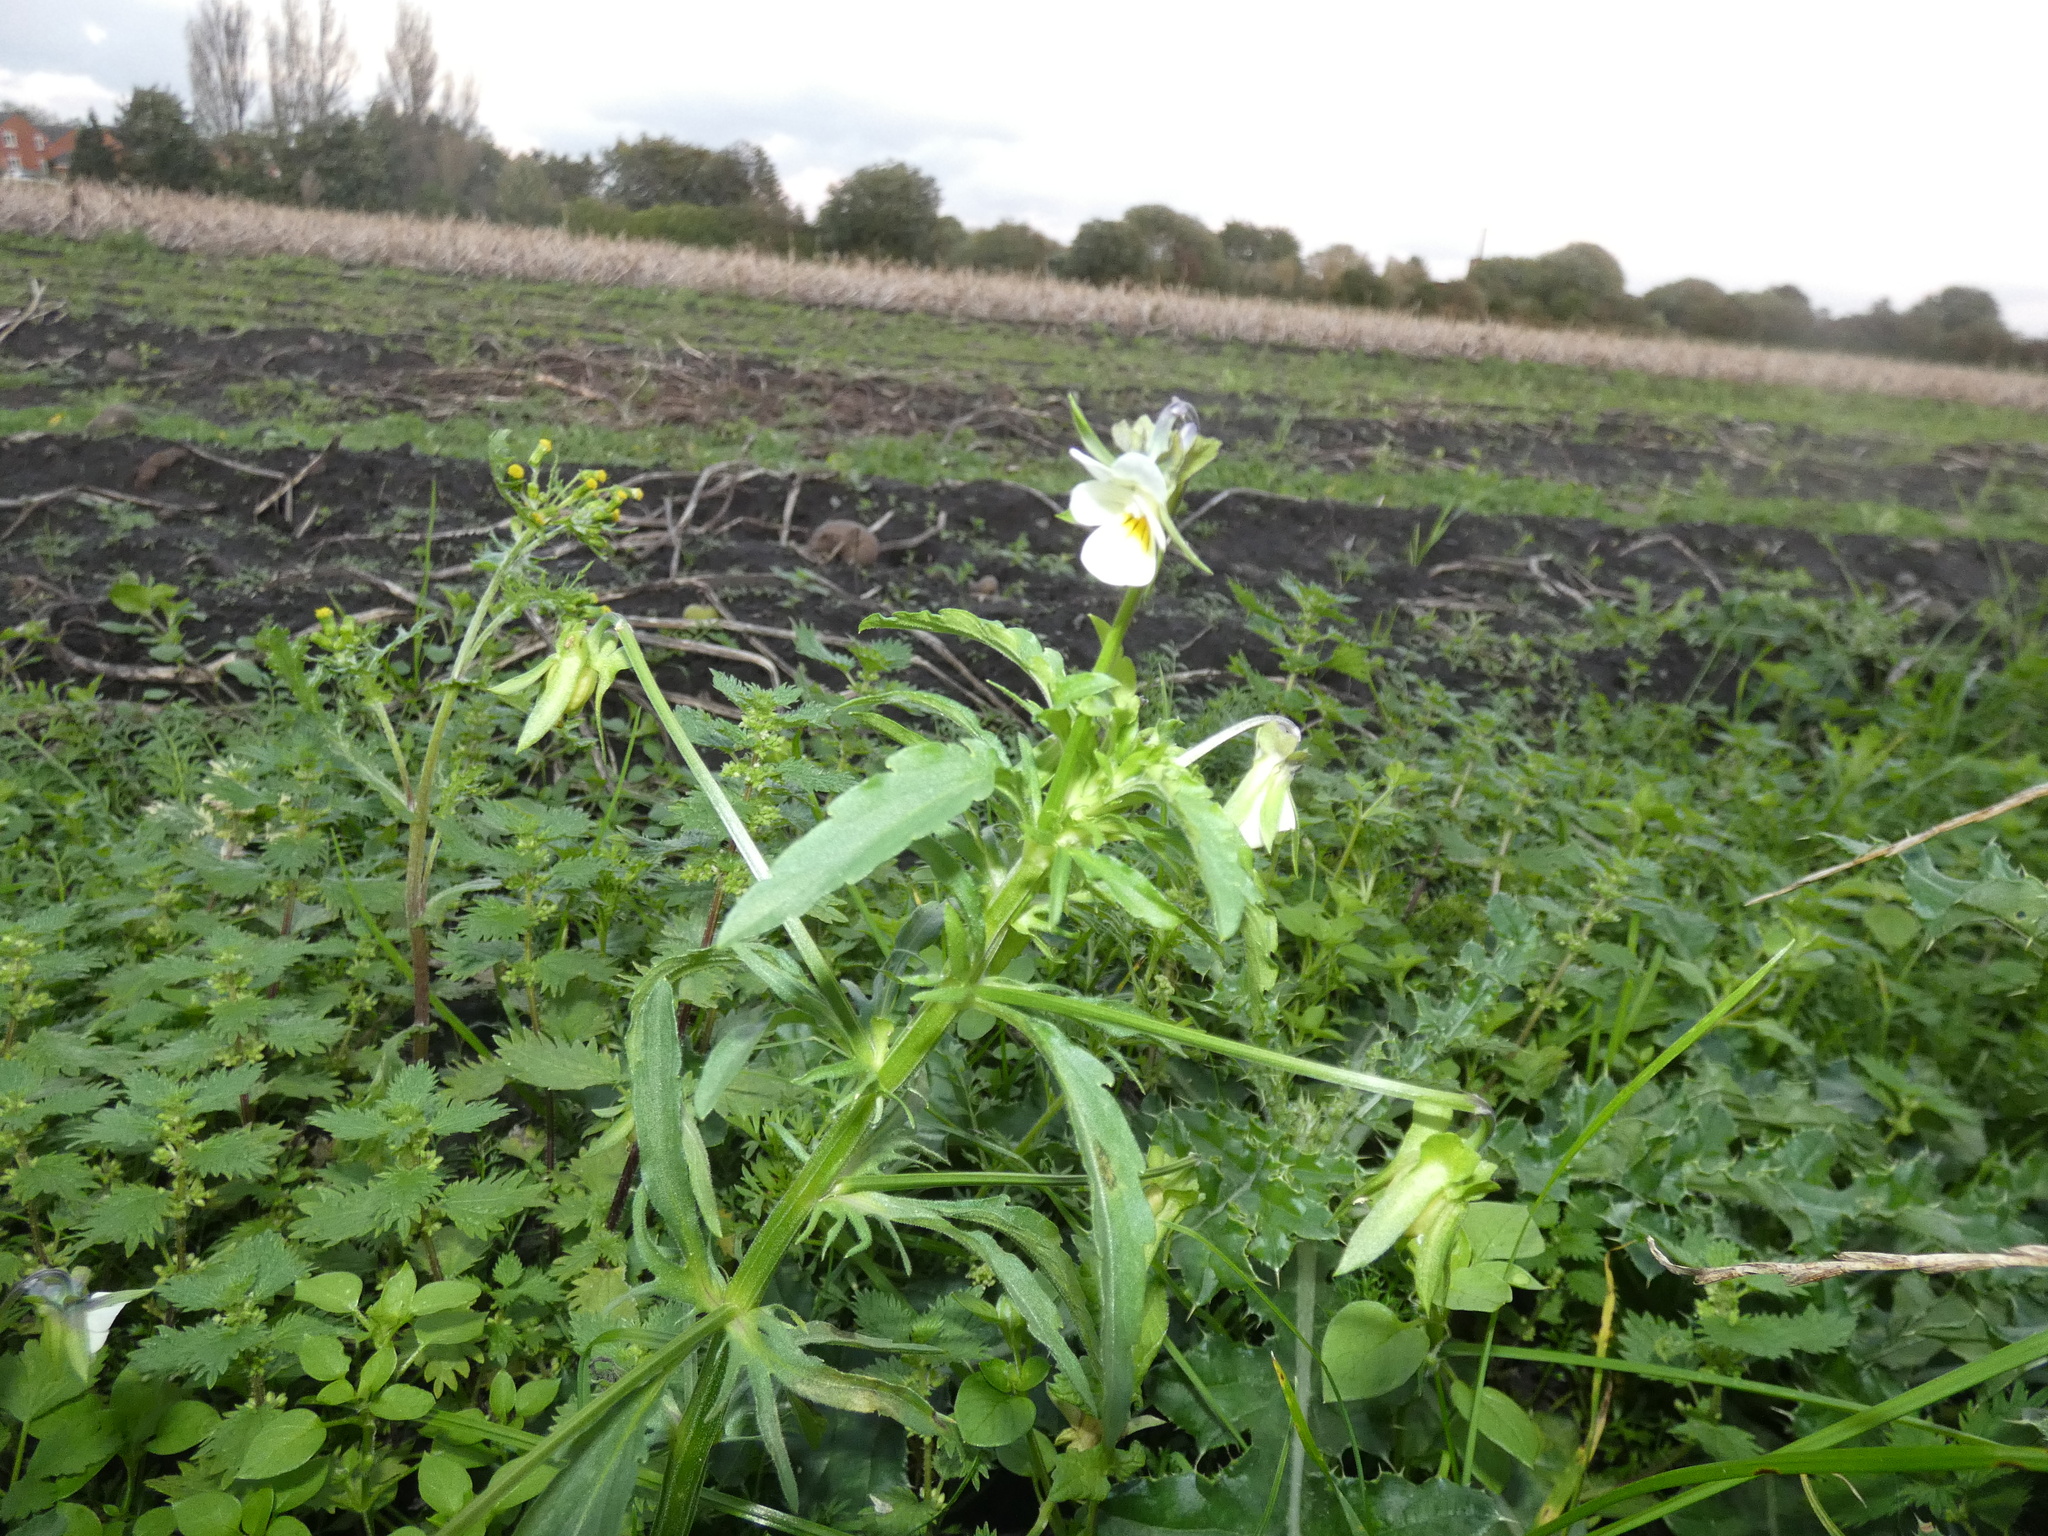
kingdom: Plantae
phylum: Tracheophyta
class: Magnoliopsida
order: Malpighiales
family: Violaceae
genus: Viola
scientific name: Viola arvensis
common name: Field pansy
